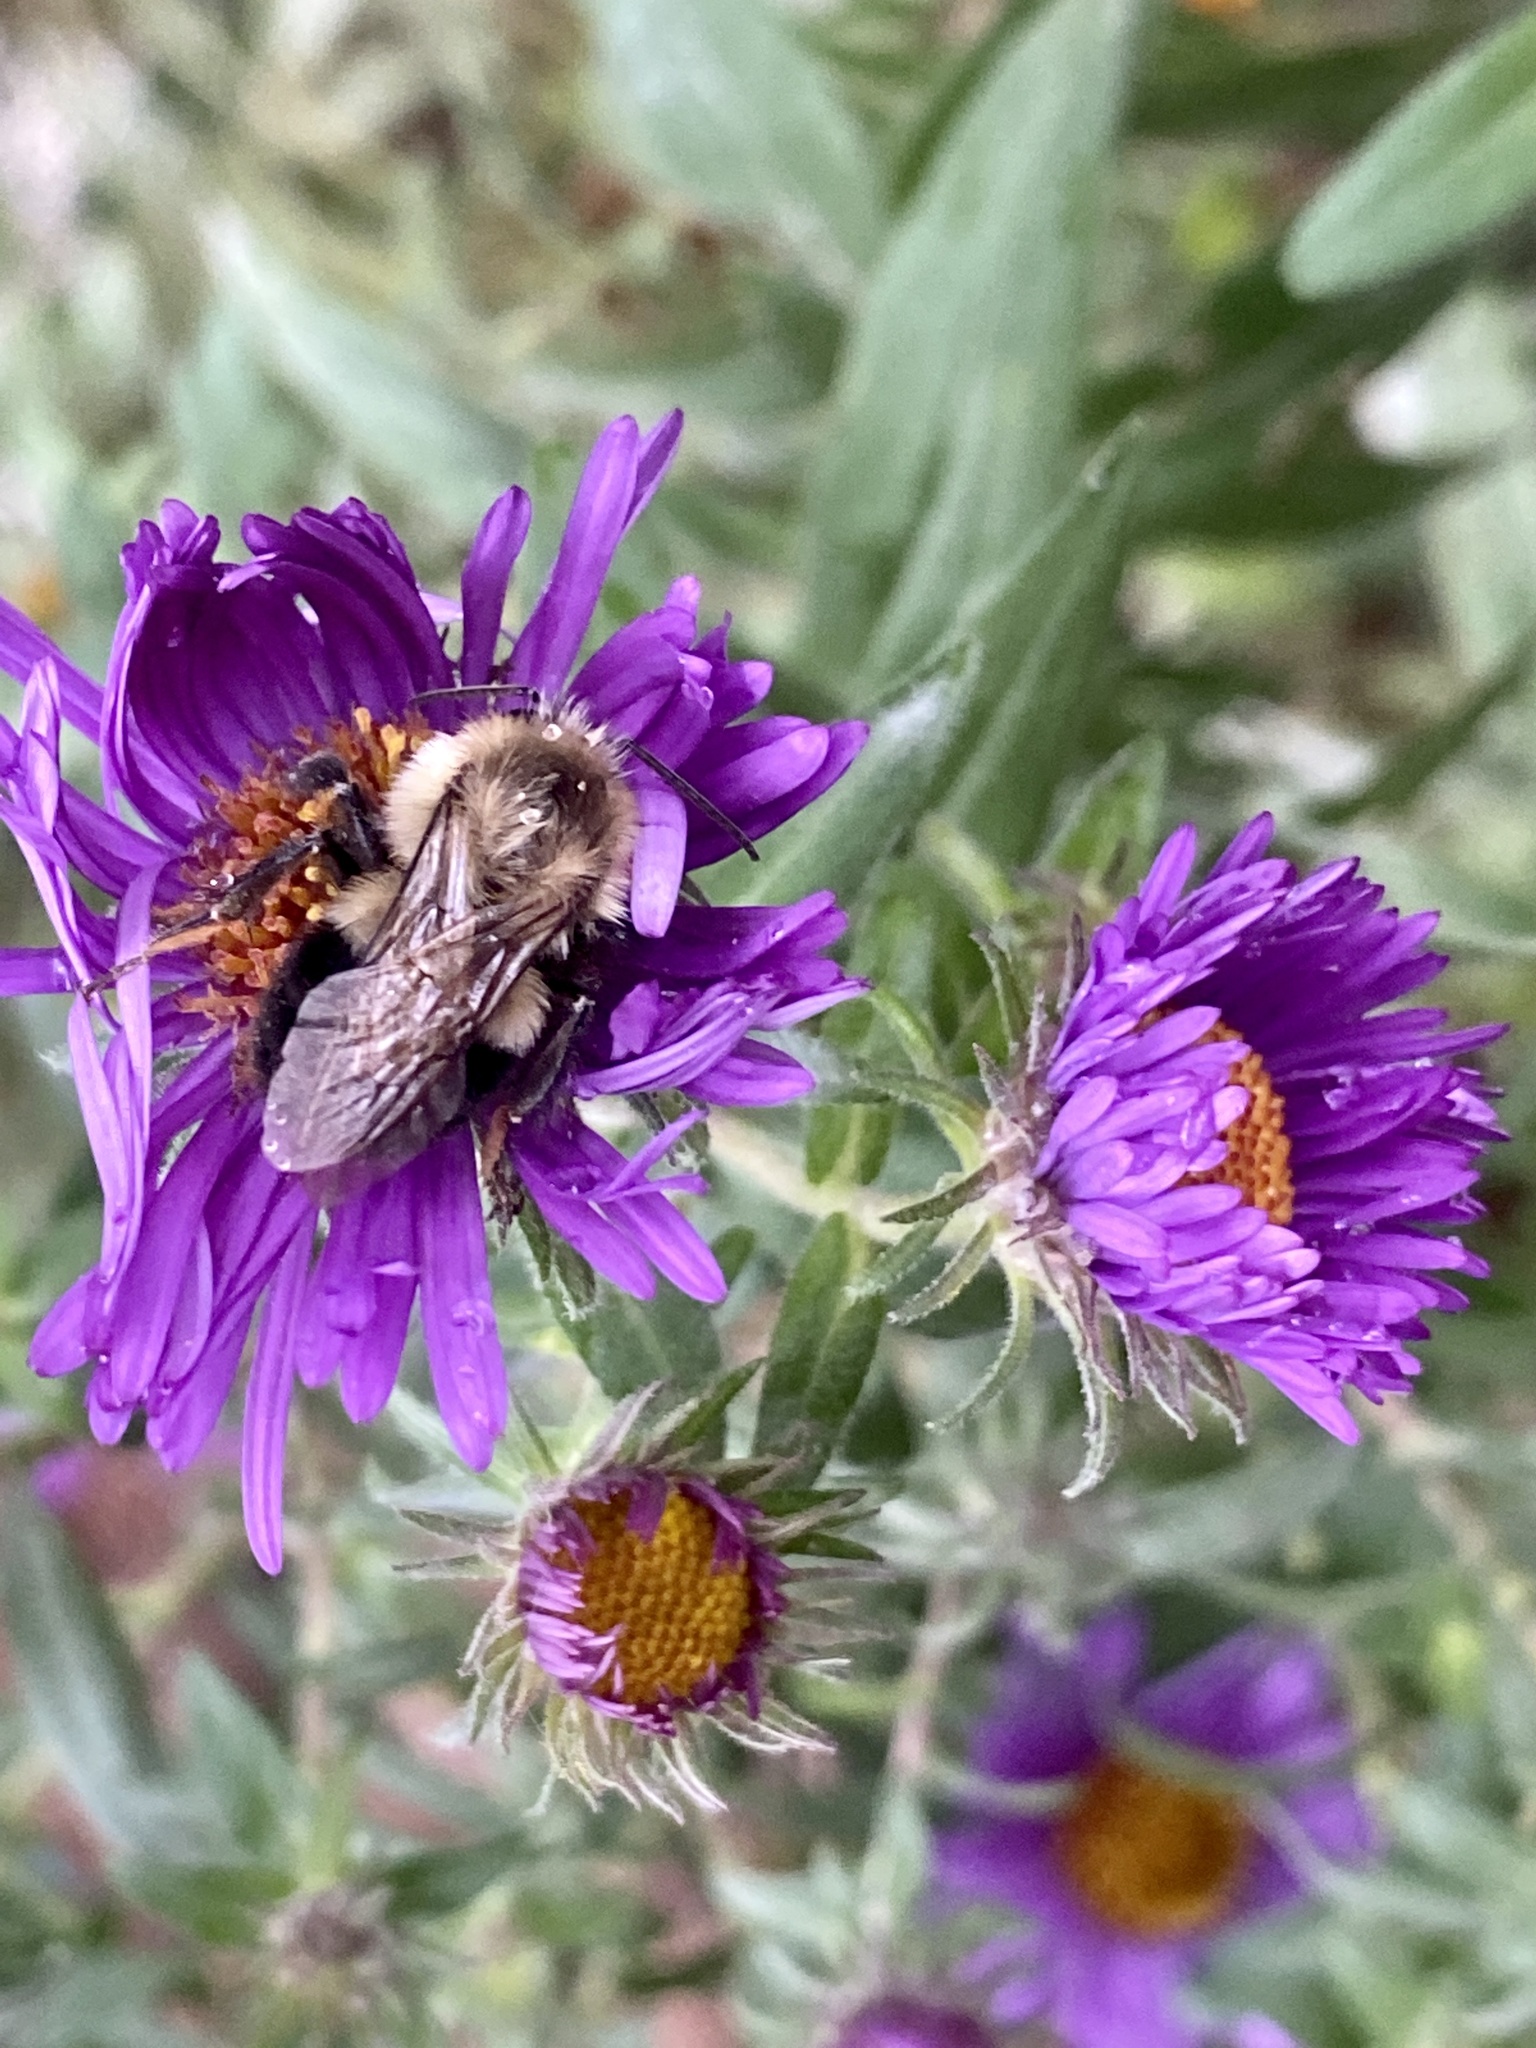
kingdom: Animalia
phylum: Arthropoda
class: Insecta
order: Hymenoptera
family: Apidae
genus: Bombus
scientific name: Bombus impatiens
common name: Common eastern bumble bee
